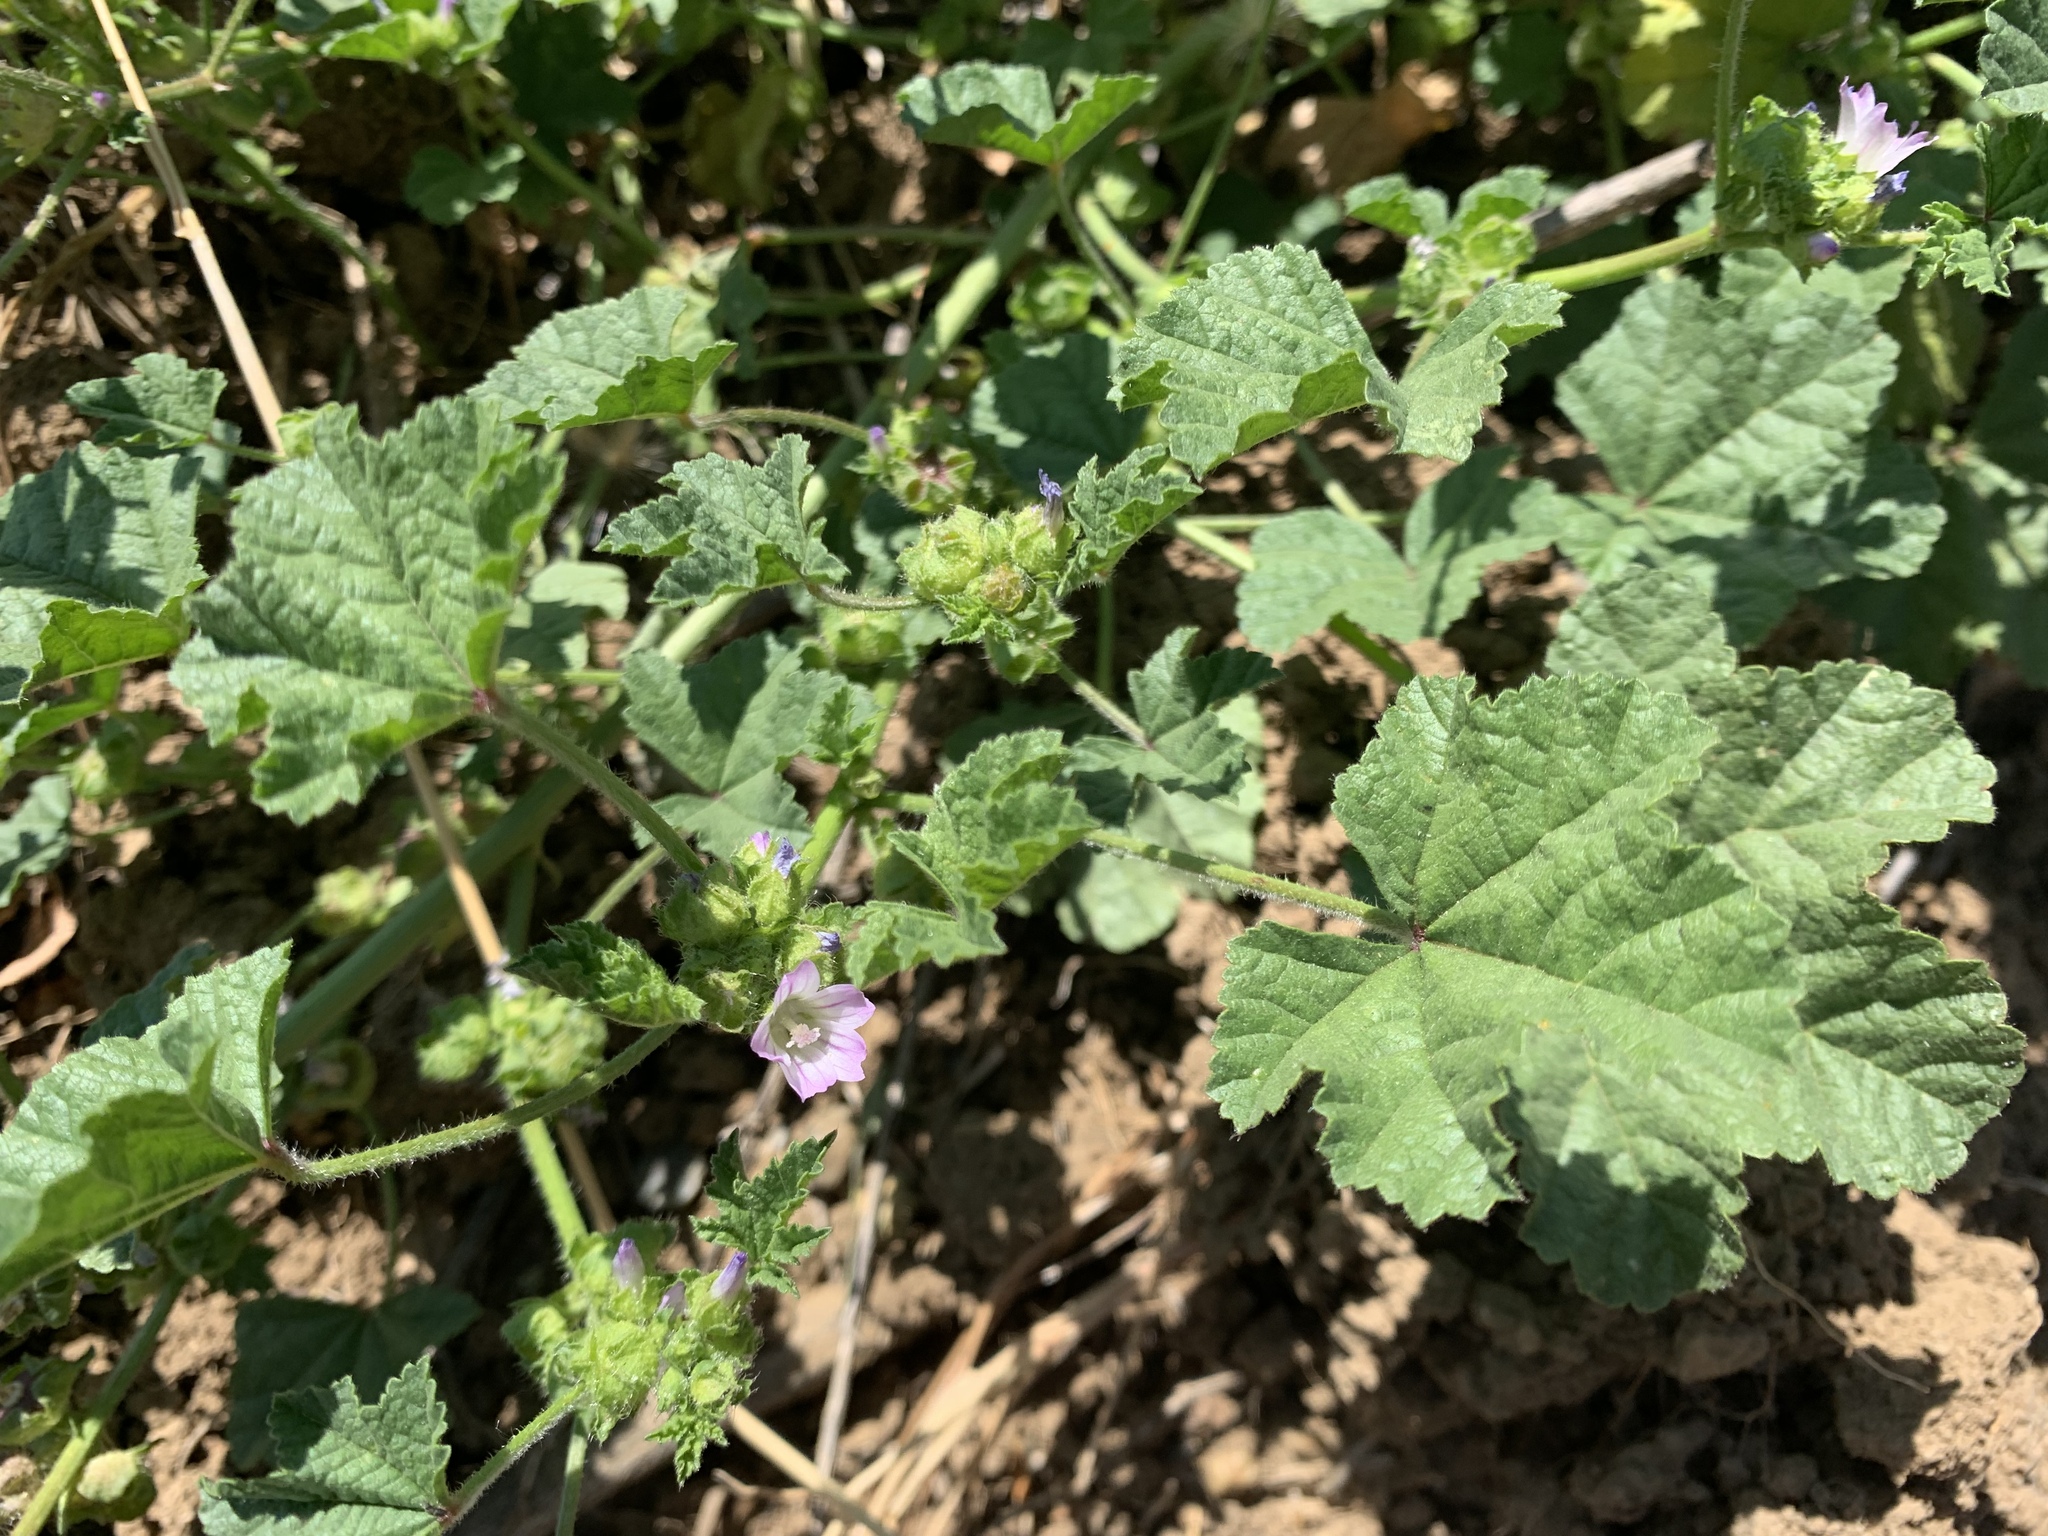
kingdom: Plantae
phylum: Tracheophyta
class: Magnoliopsida
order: Malvales
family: Malvaceae
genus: Malva
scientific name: Malva nicaeensis
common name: French mallow
